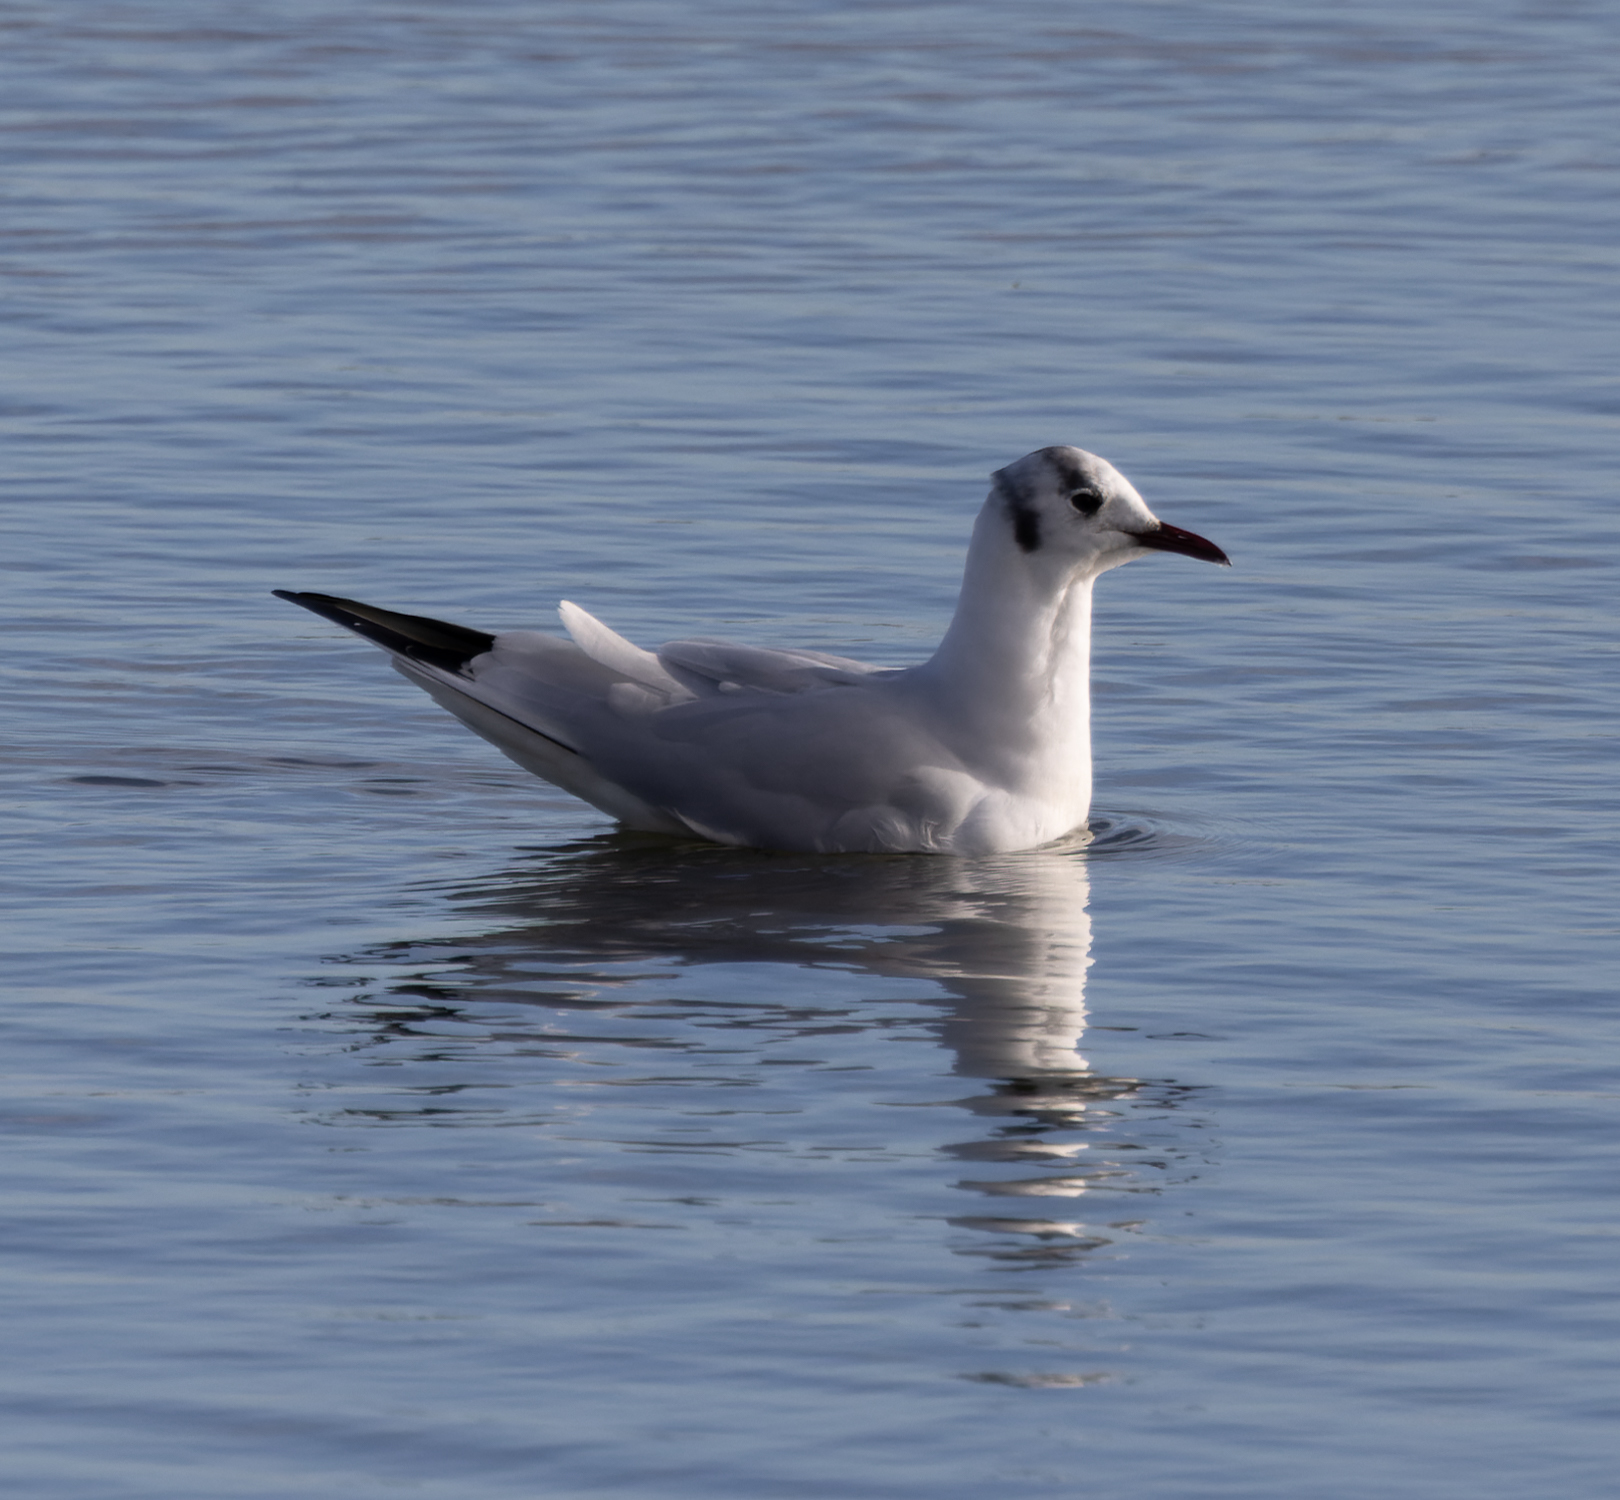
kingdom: Animalia
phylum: Chordata
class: Aves
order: Charadriiformes
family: Laridae
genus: Chroicocephalus
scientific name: Chroicocephalus ridibundus
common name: Black-headed gull
